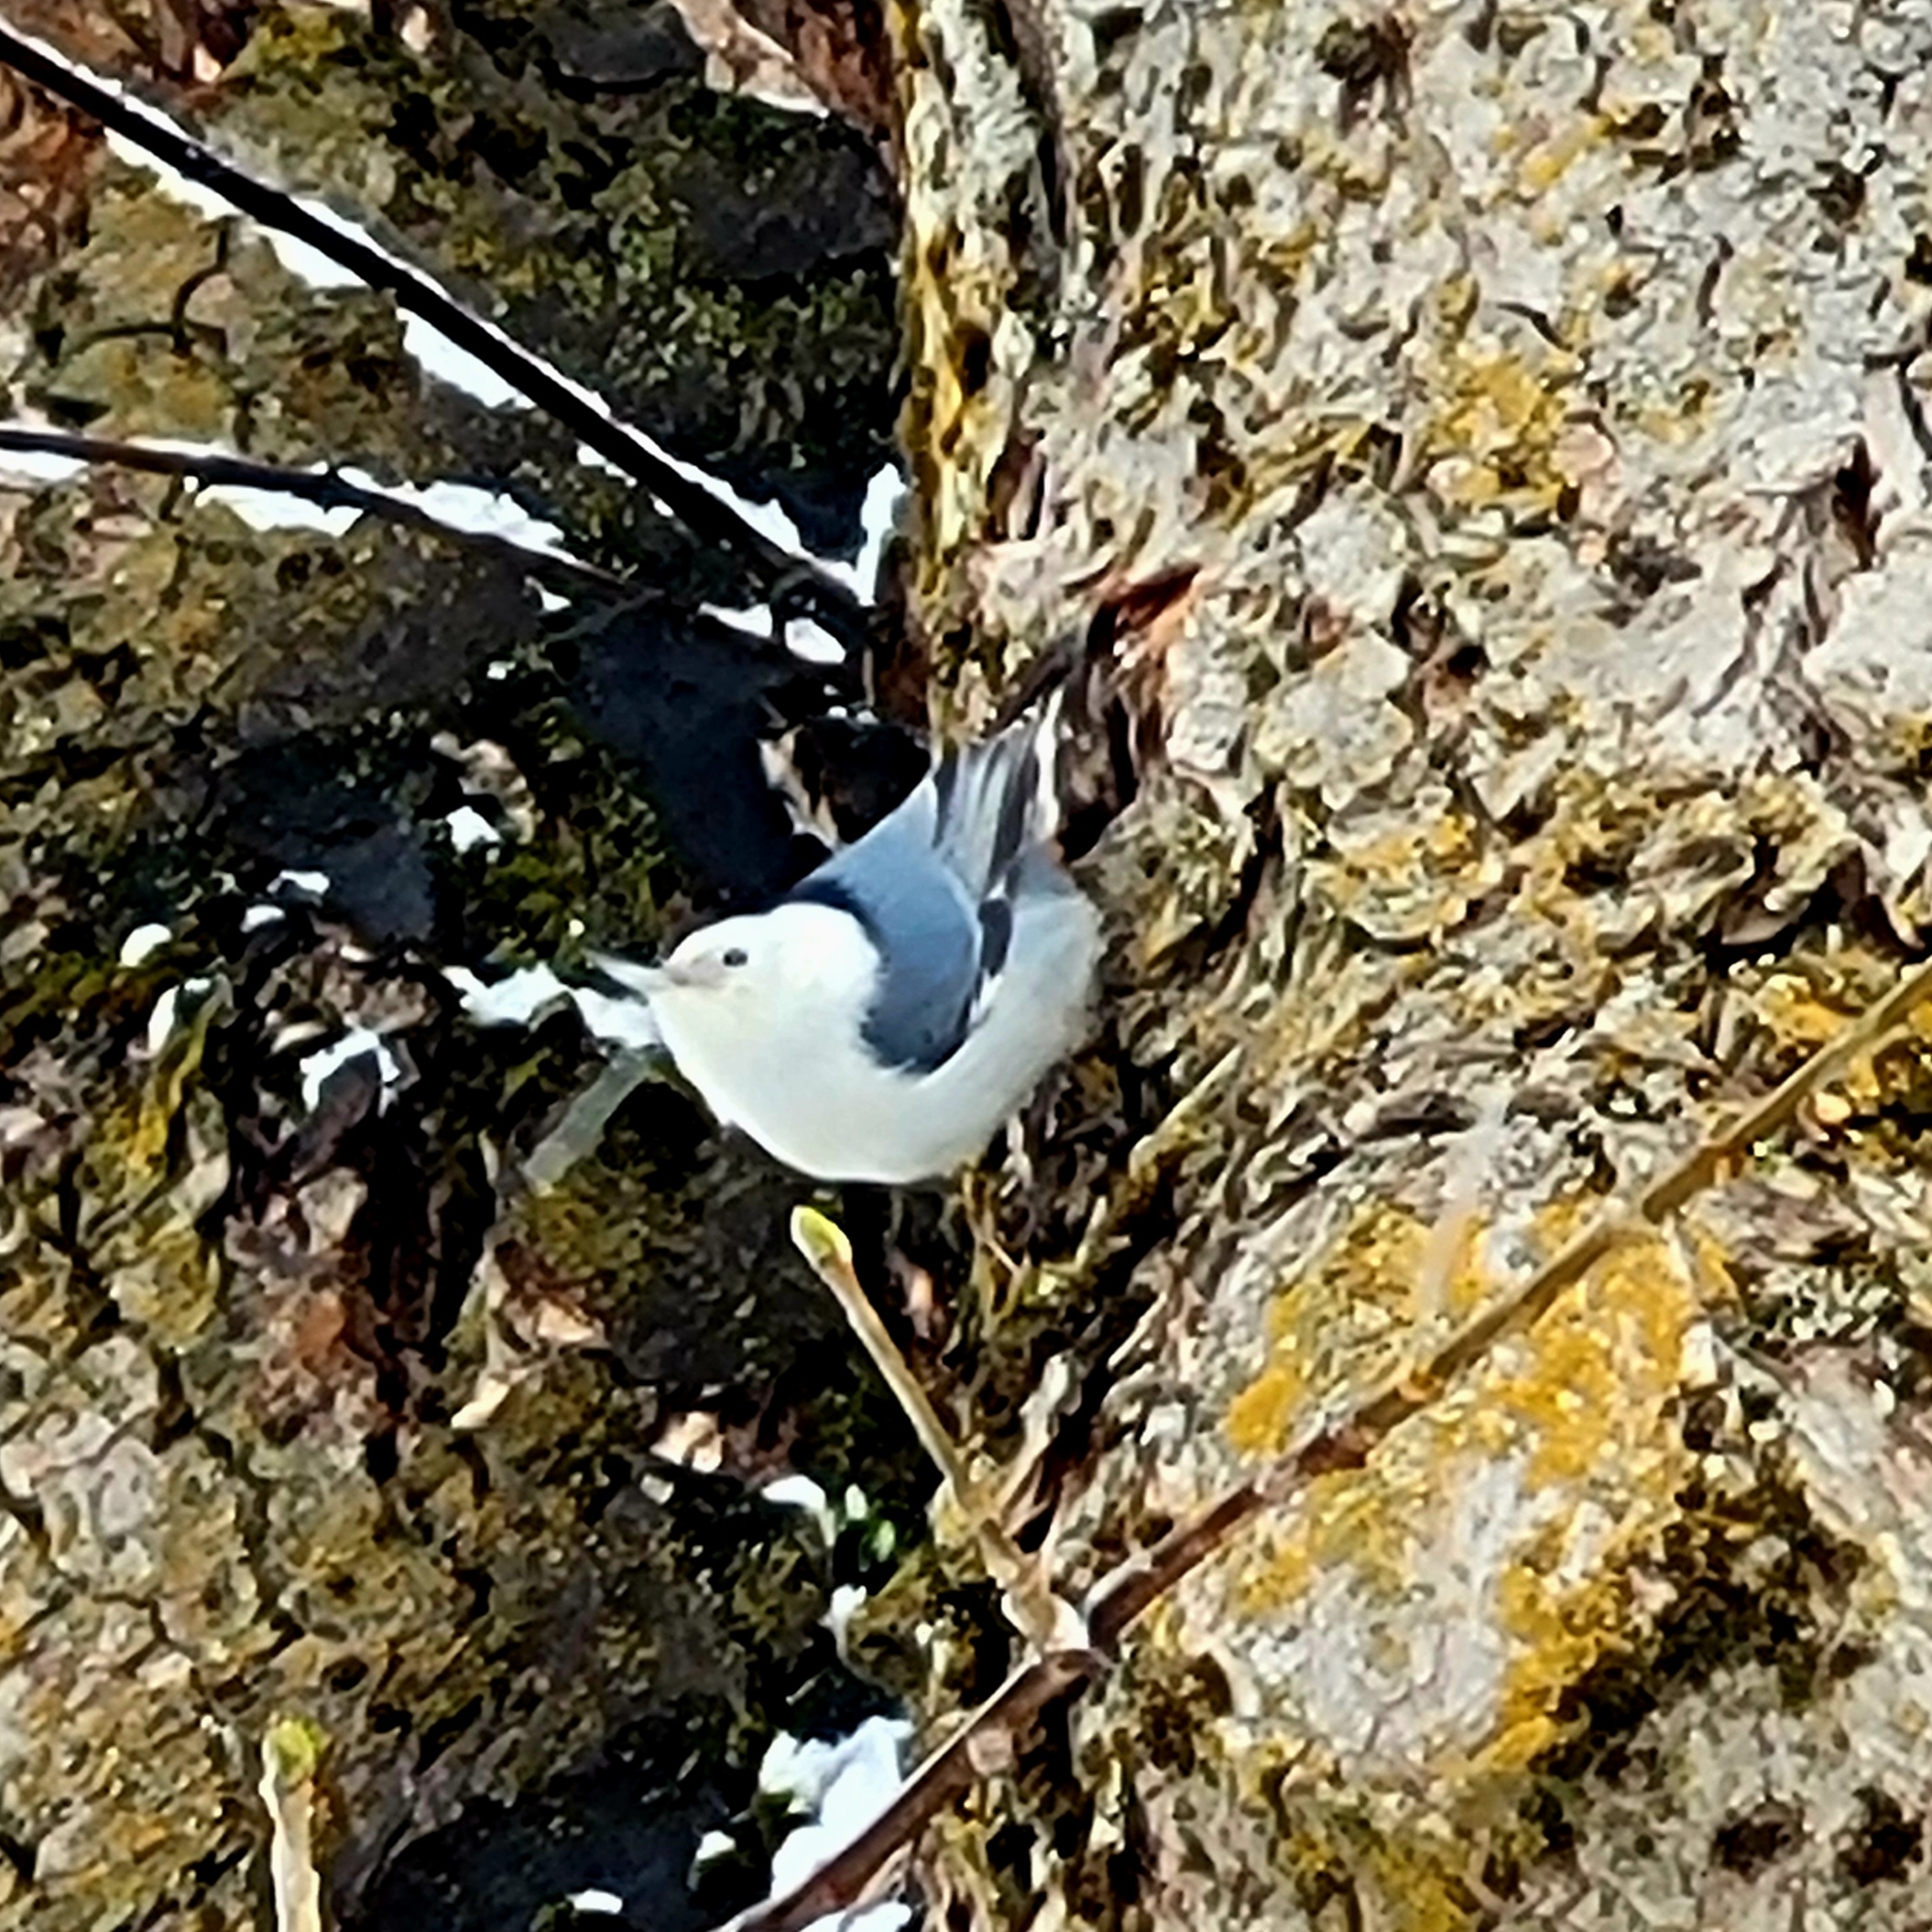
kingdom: Animalia
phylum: Chordata
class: Aves
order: Passeriformes
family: Sittidae
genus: Sitta
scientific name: Sitta carolinensis
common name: White-breasted nuthatch
